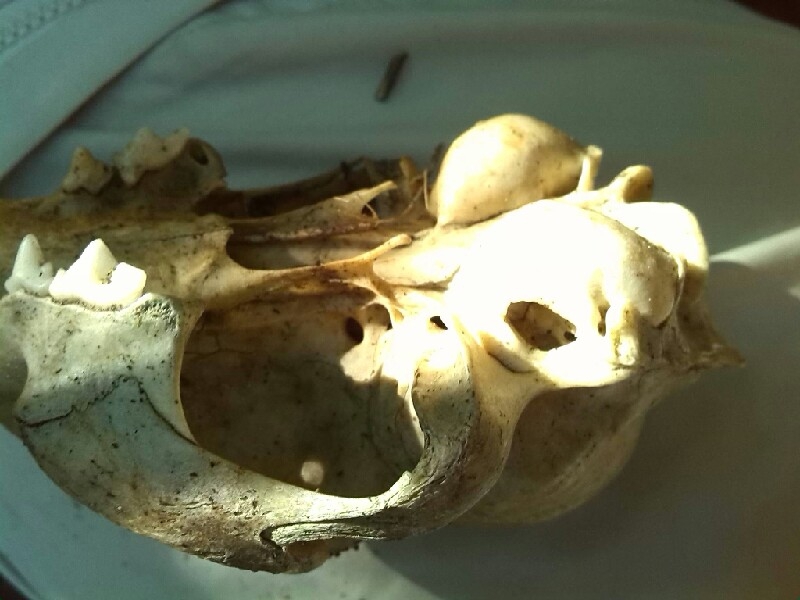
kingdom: Animalia
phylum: Chordata
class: Mammalia
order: Carnivora
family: Felidae
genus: Felis
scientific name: Felis catus
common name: Domestic cat
